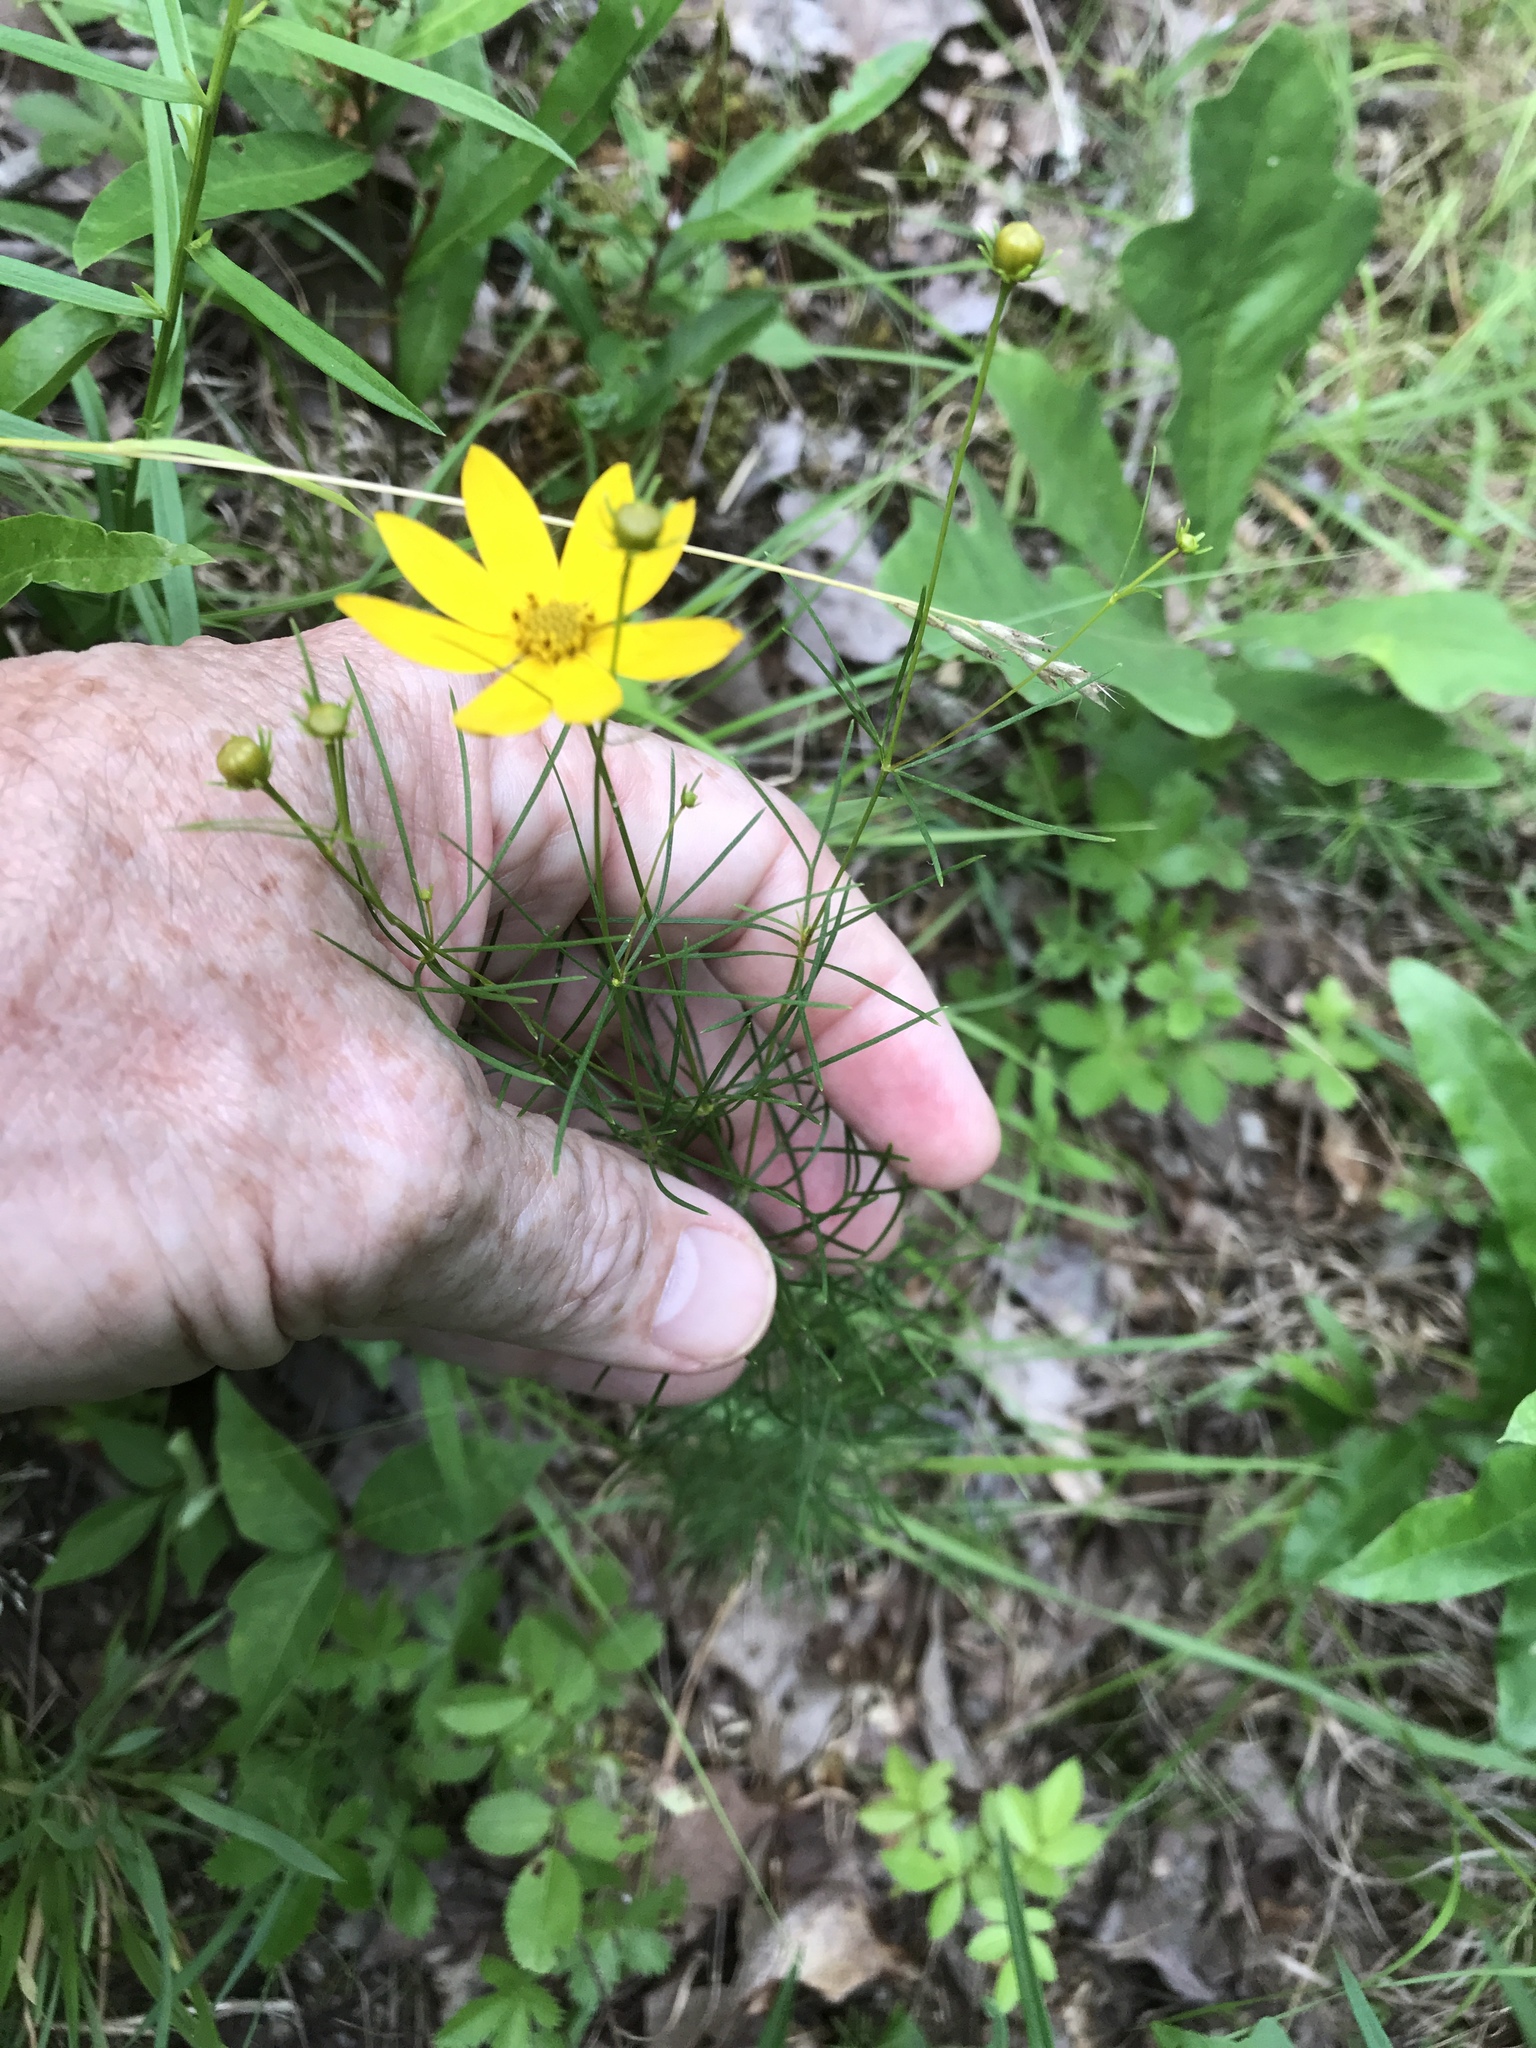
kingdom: Plantae
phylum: Tracheophyta
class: Magnoliopsida
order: Asterales
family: Asteraceae
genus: Coreopsis
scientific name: Coreopsis verticillata
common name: Whorled tickseed
